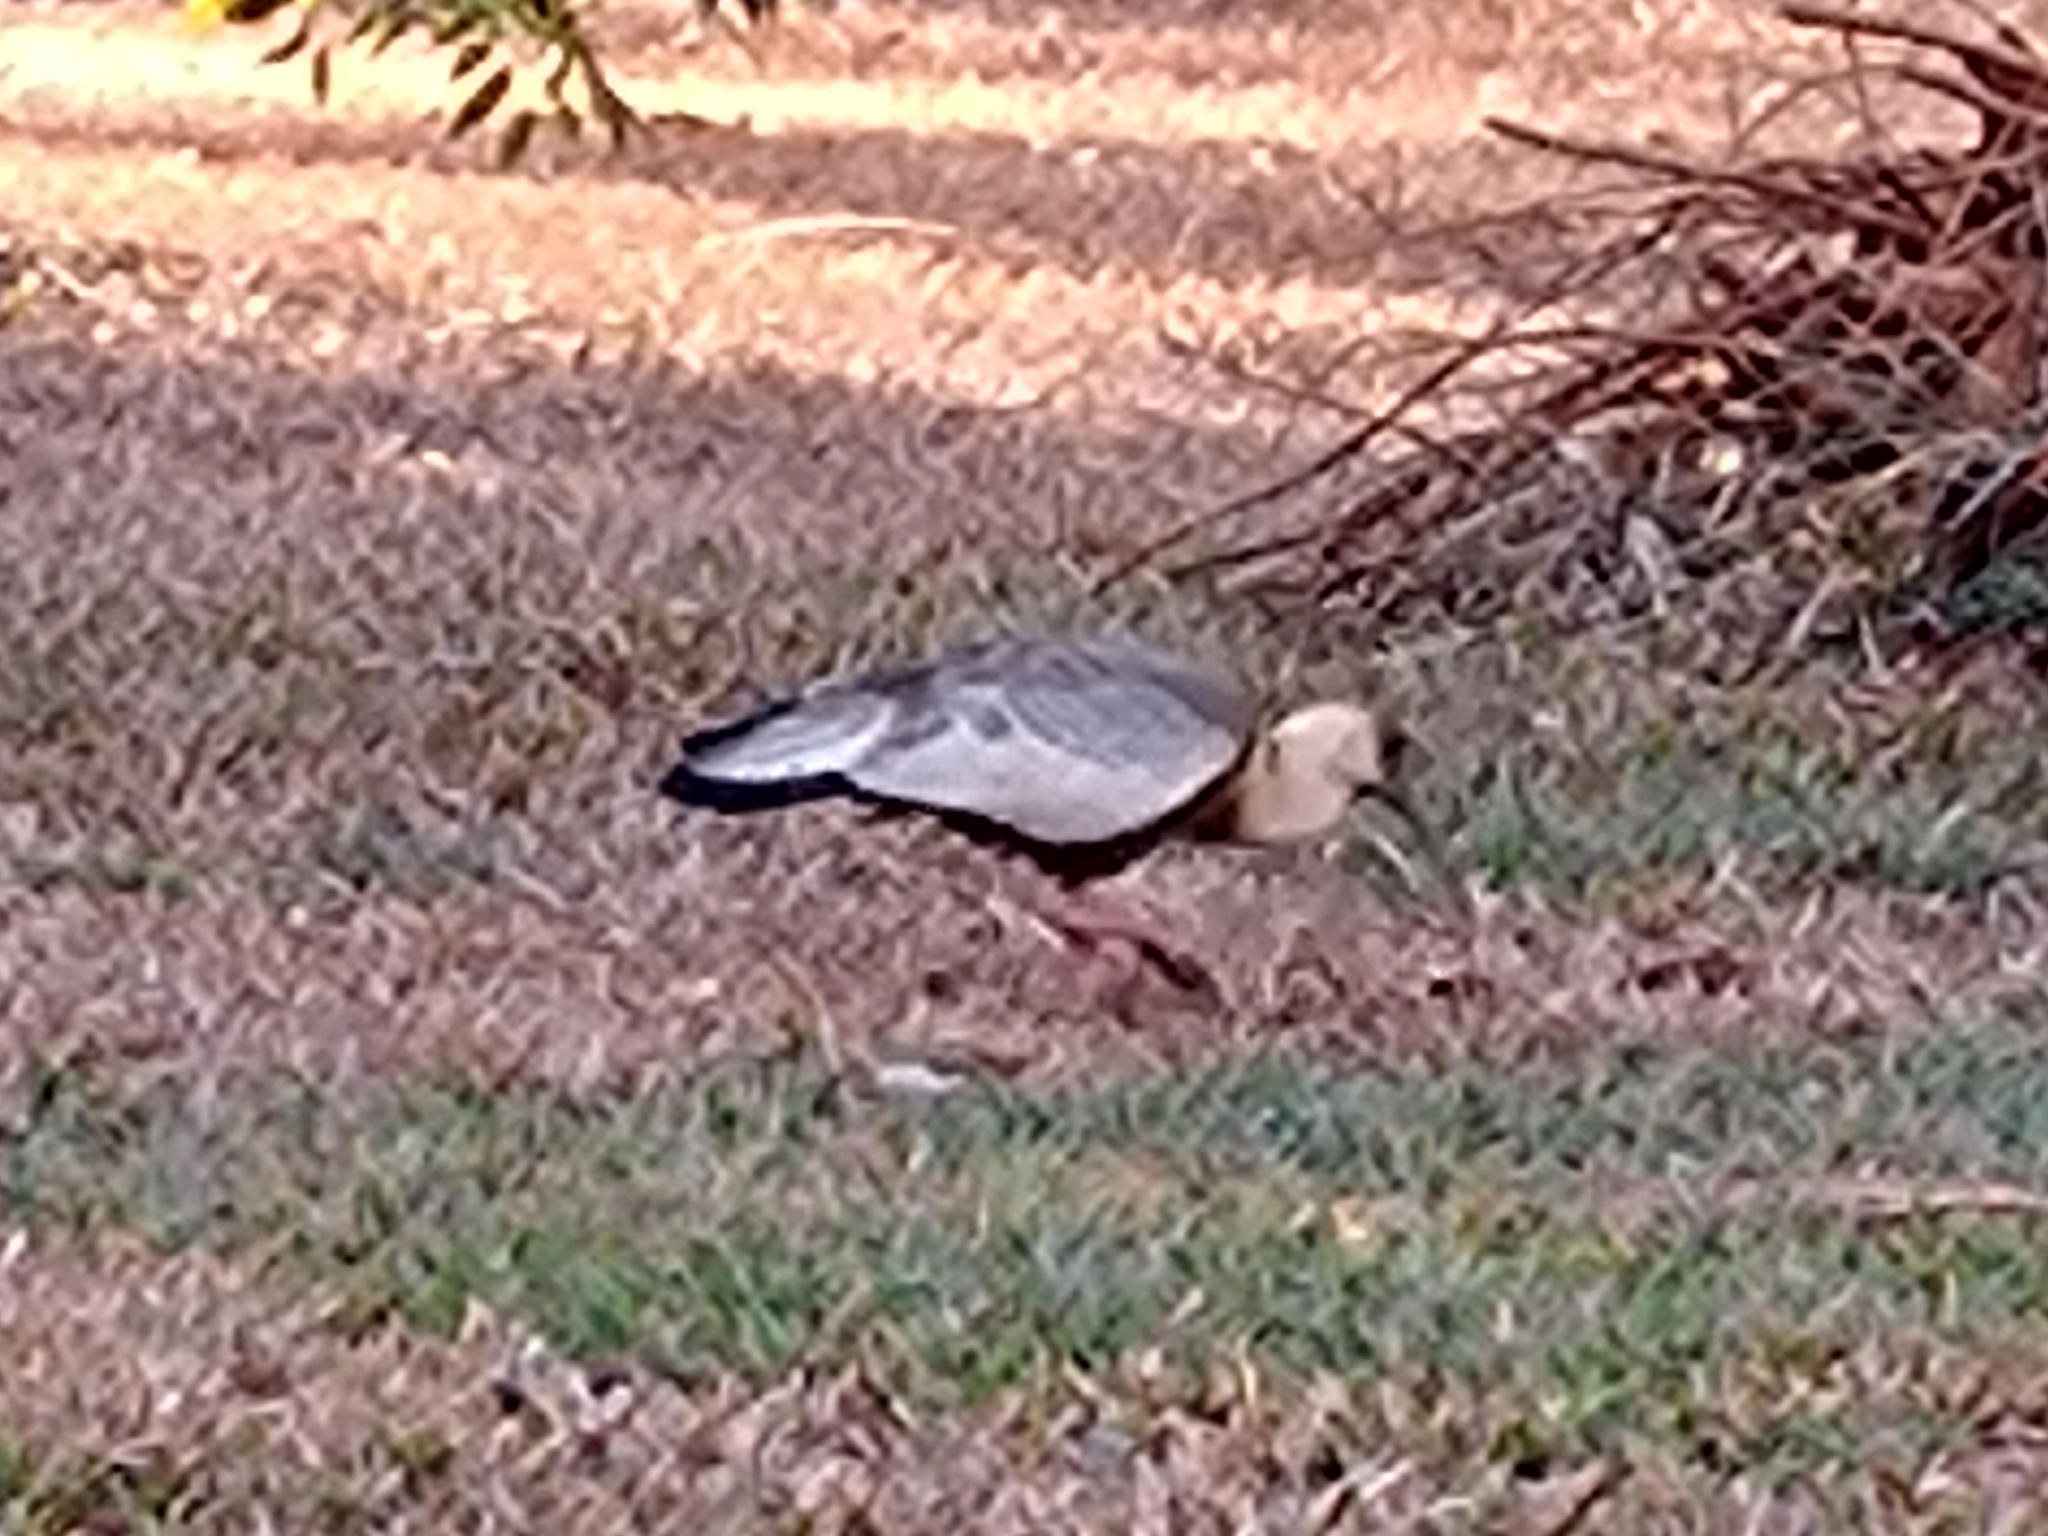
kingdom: Animalia
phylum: Chordata
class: Aves
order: Pelecaniformes
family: Threskiornithidae
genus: Theristicus
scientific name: Theristicus caudatus
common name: Buff-necked ibis
